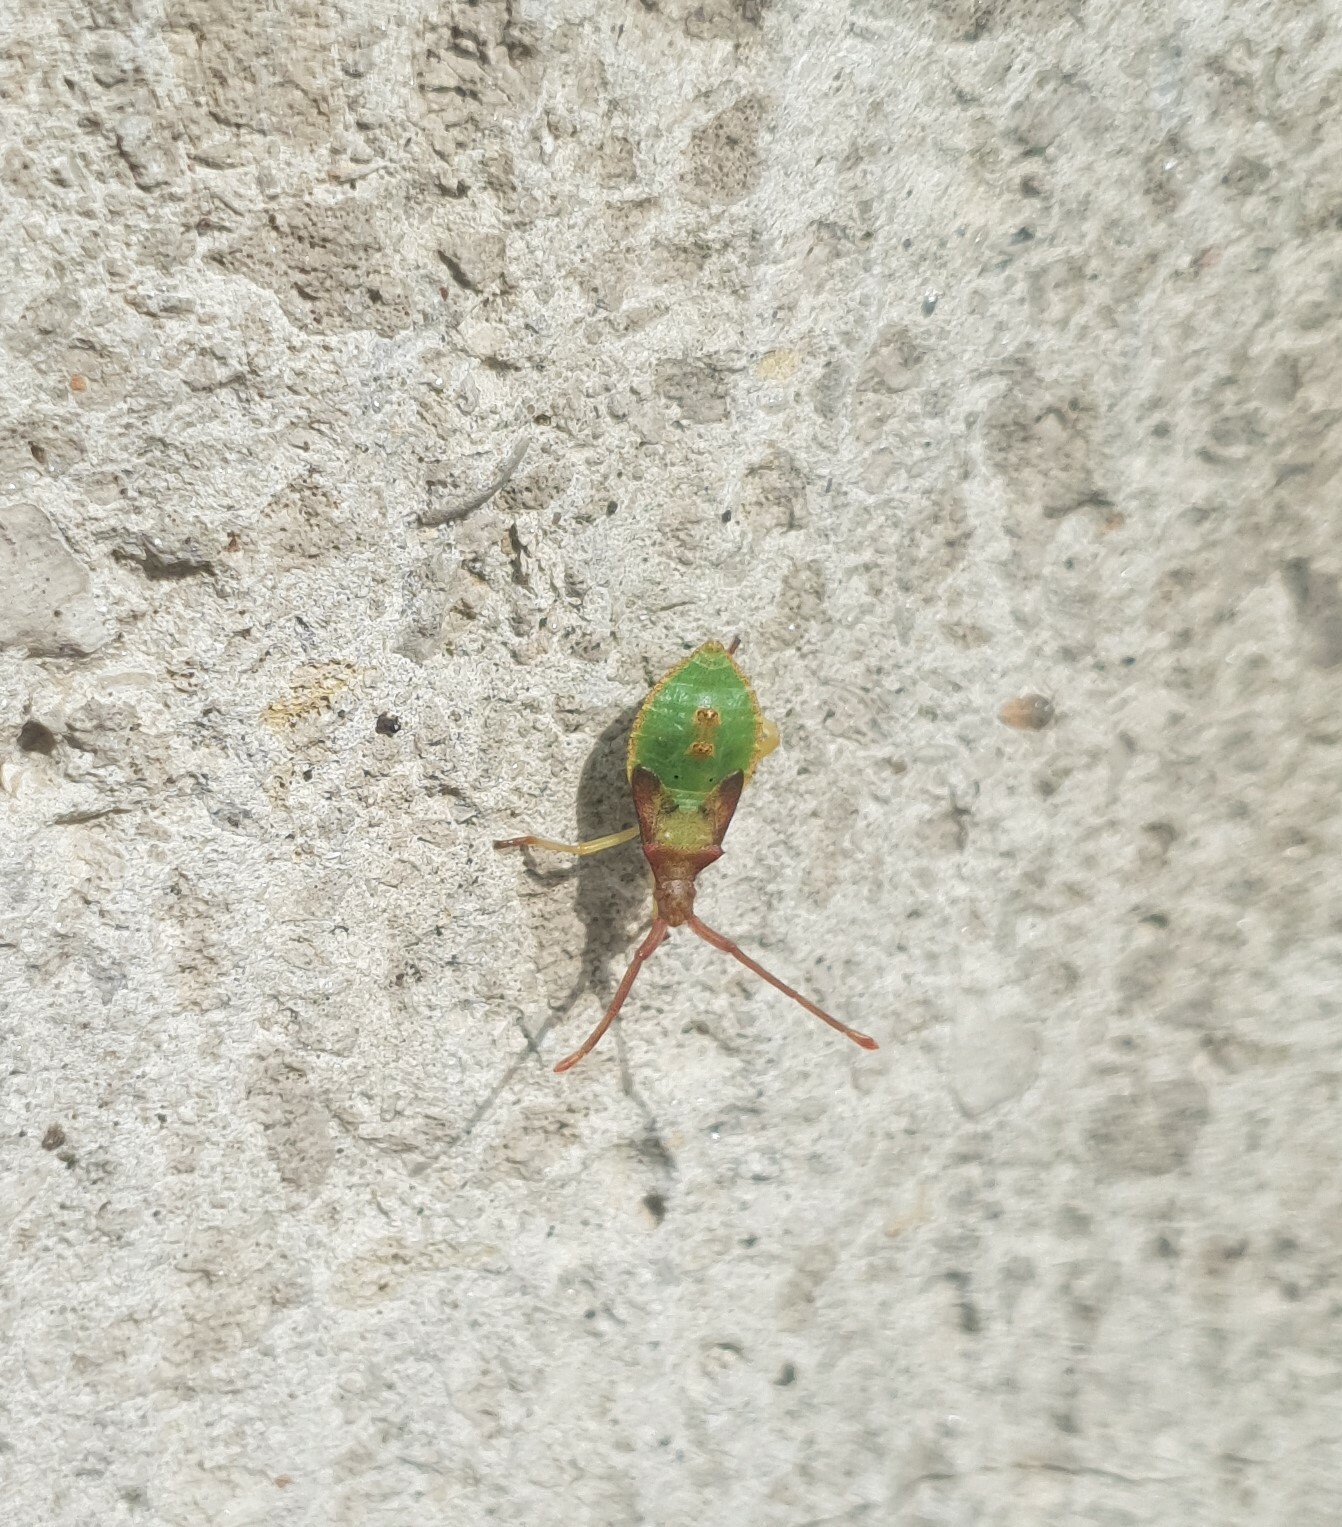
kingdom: Animalia
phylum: Arthropoda
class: Insecta
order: Hemiptera
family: Coreidae
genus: Gonocerus
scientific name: Gonocerus acuteangulatus
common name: Box bug
